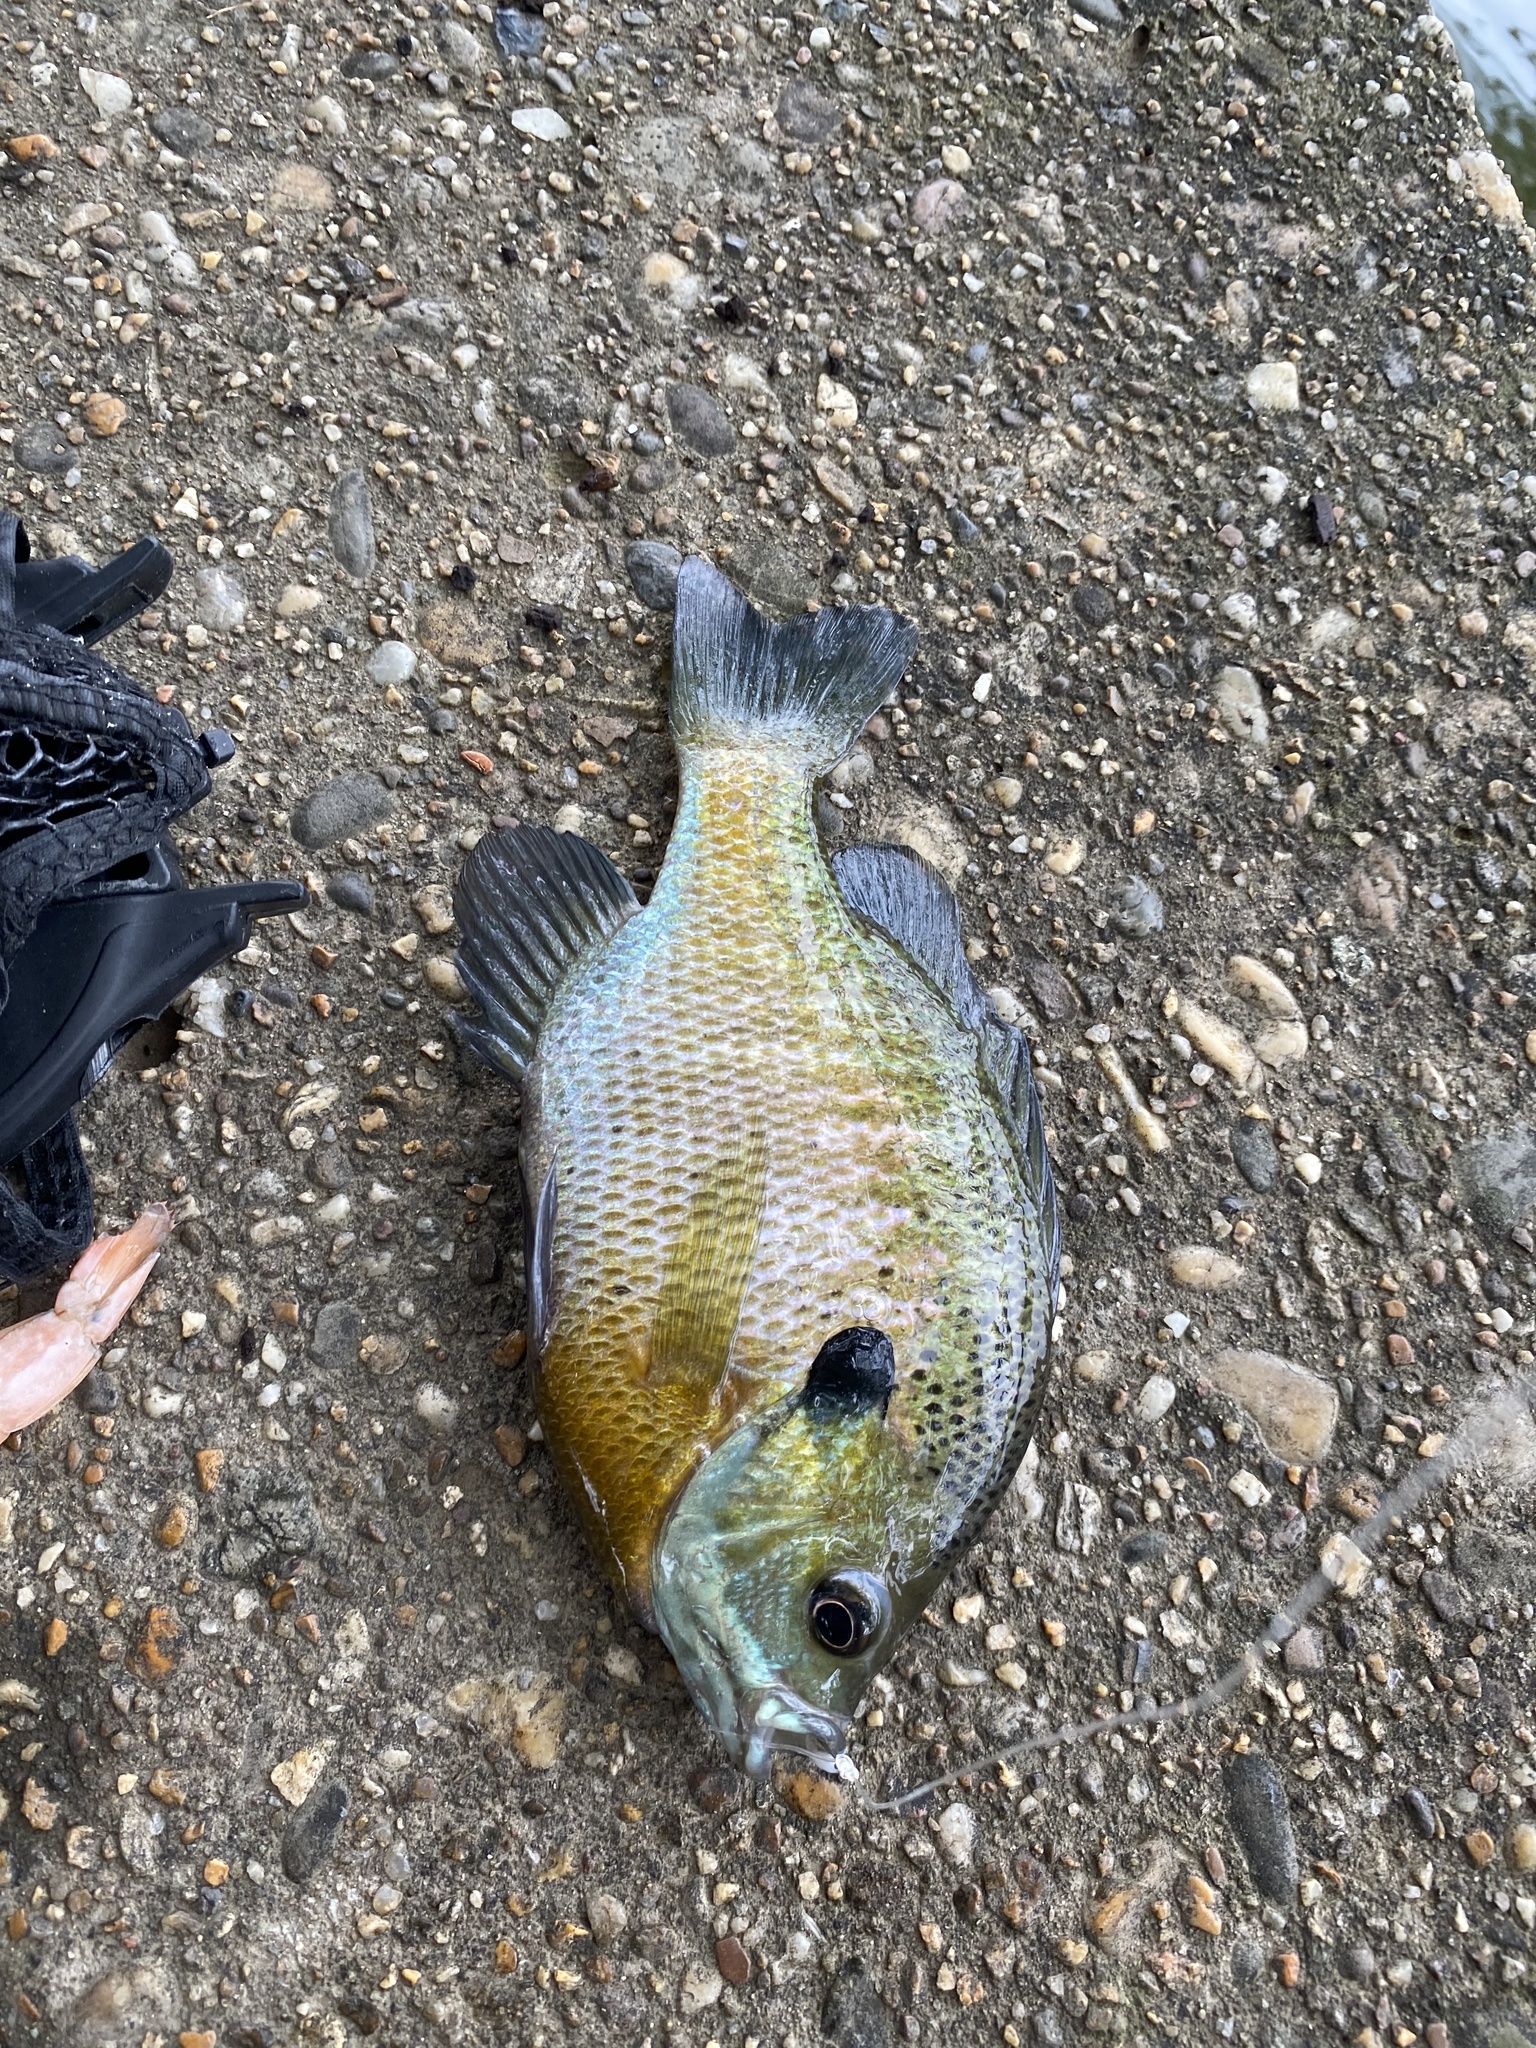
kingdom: Animalia
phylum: Chordata
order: Perciformes
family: Centrarchidae
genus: Lepomis
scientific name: Lepomis macrochirus
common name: Bluegill
